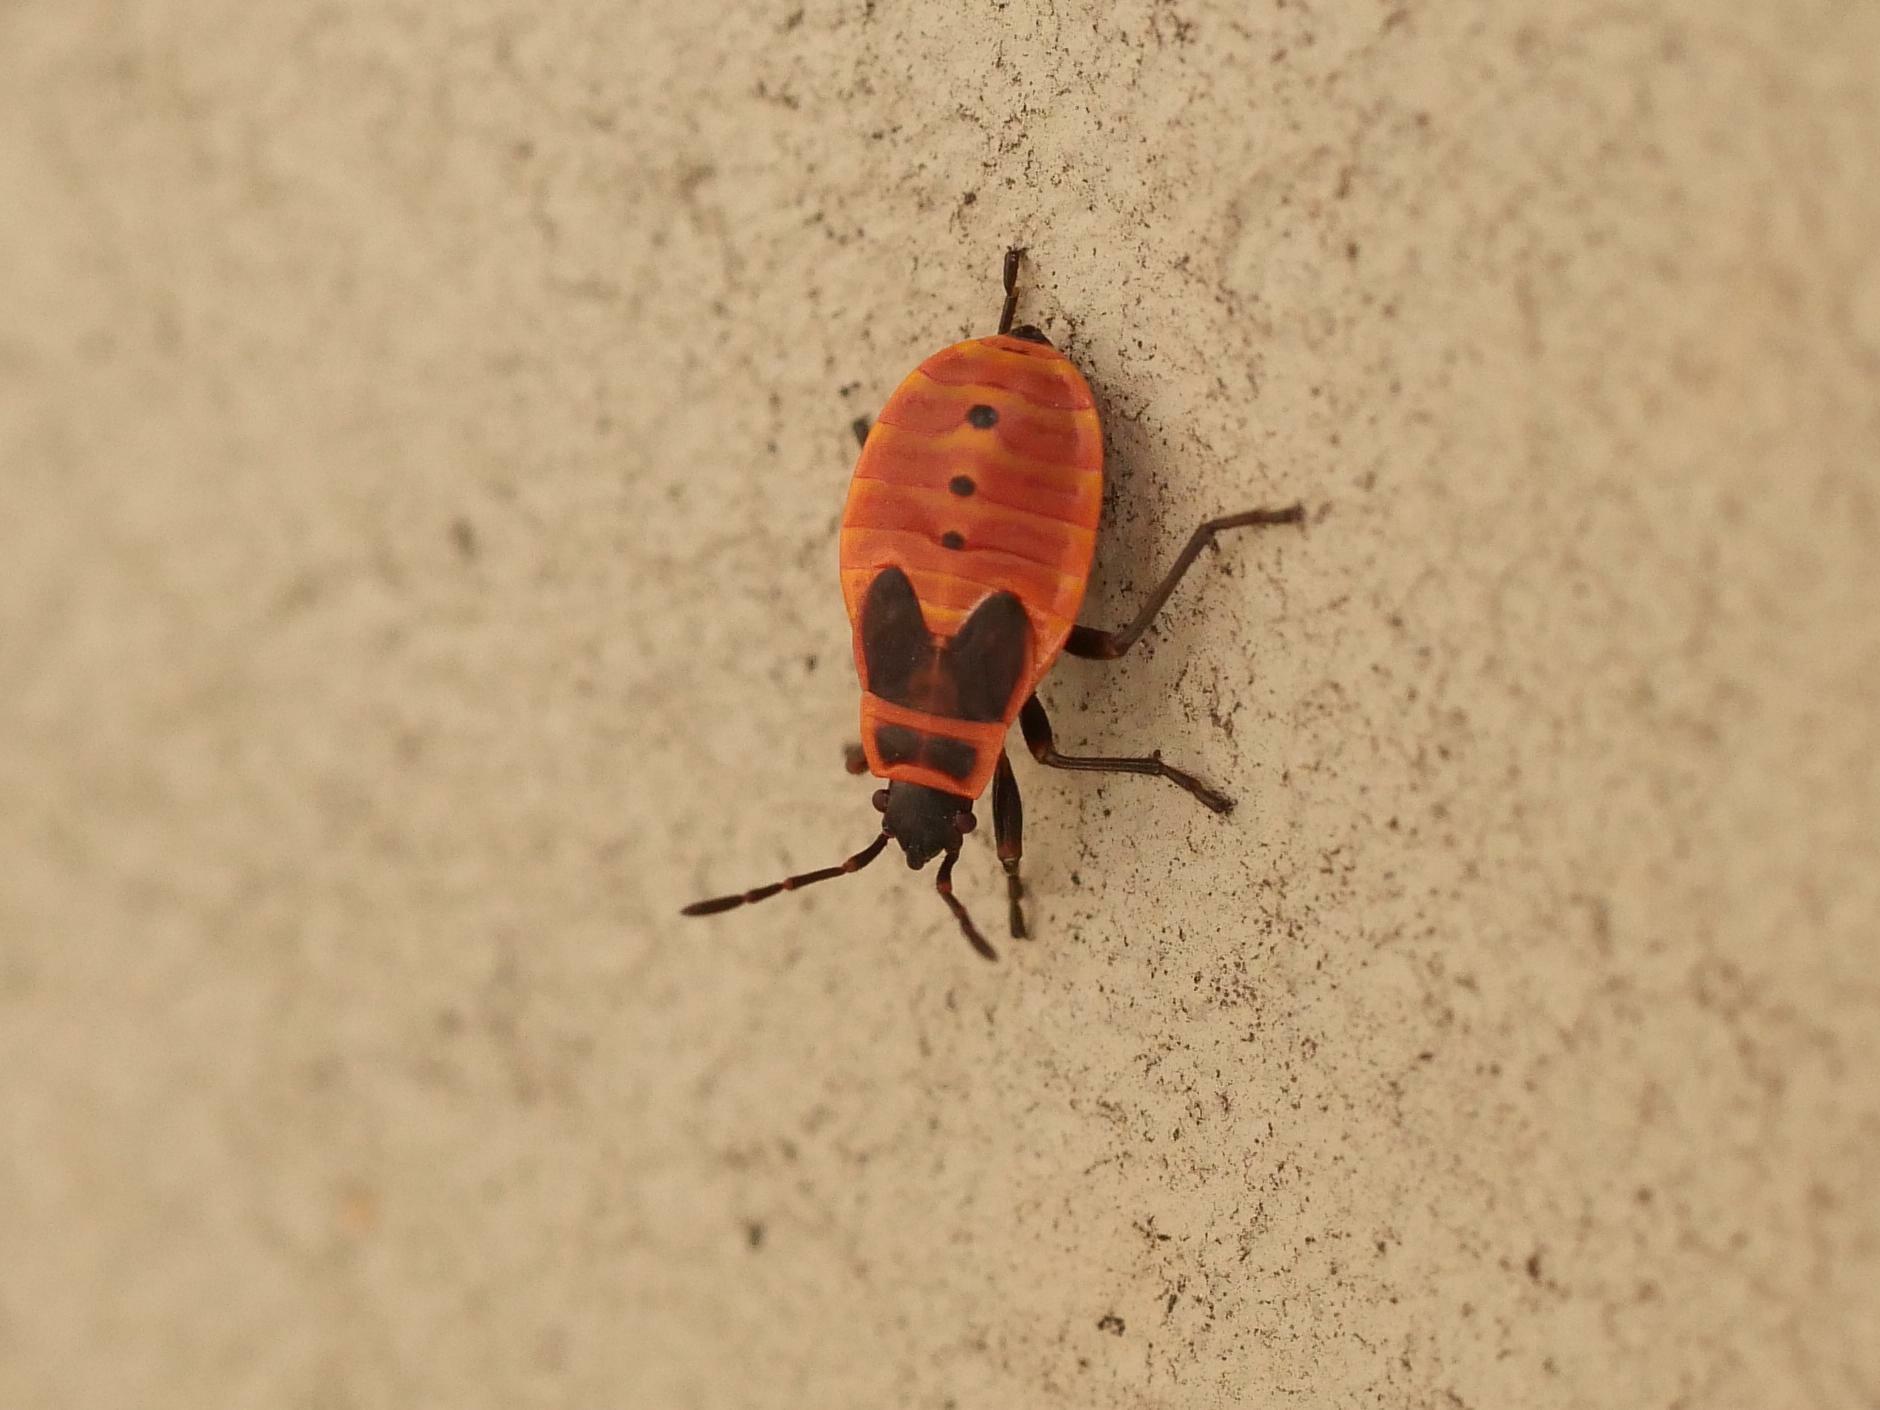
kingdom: Animalia
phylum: Arthropoda
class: Insecta
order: Hemiptera
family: Pyrrhocoridae
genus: Pyrrhocoris
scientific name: Pyrrhocoris apterus
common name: Firebug
